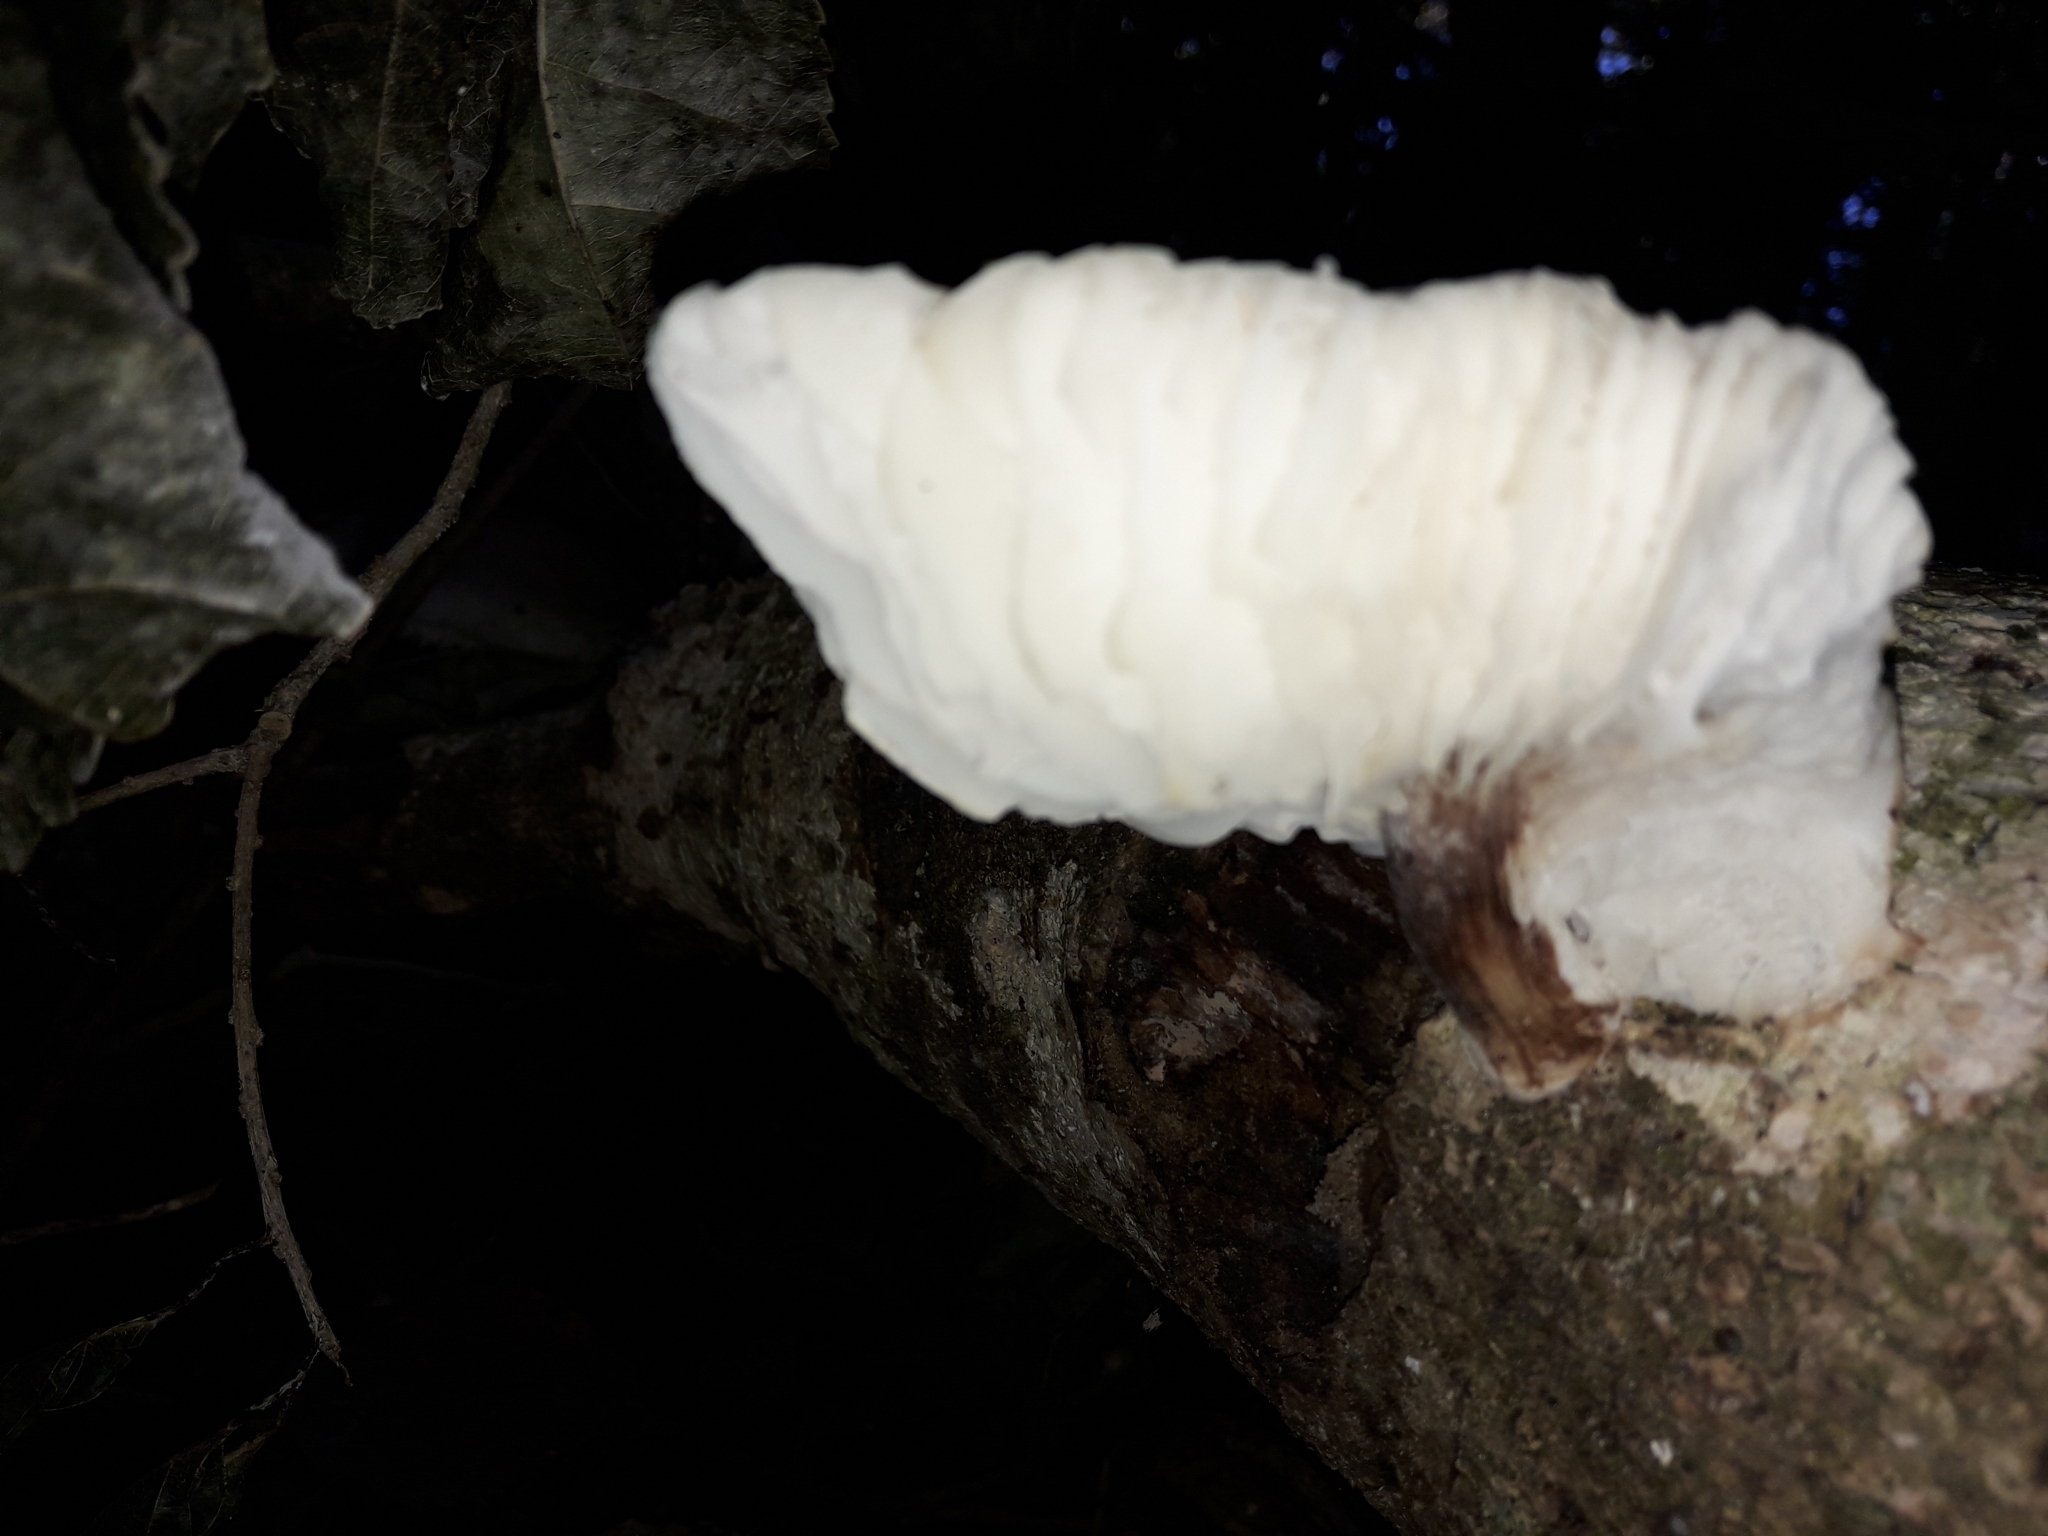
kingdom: Fungi
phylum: Basidiomycota
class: Agaricomycetes
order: Agaricales
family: Physalacriaceae
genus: Oudemansiella
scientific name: Oudemansiella australis
